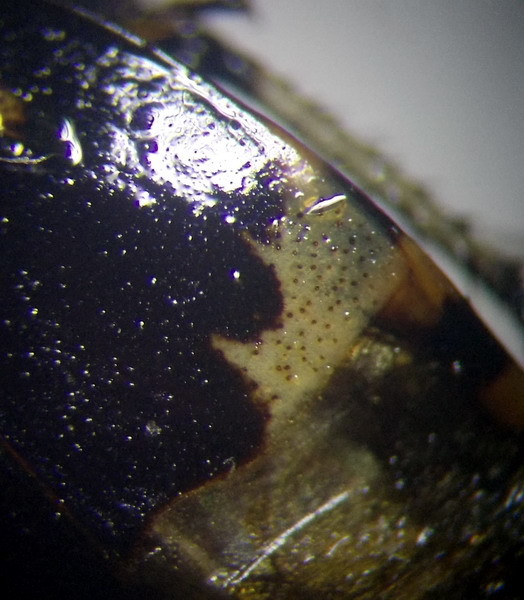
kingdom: Animalia
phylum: Arthropoda
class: Insecta
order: Hemiptera
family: Cydnidae
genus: Tritomegas
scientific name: Tritomegas bicolor
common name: Pied shieldbug
